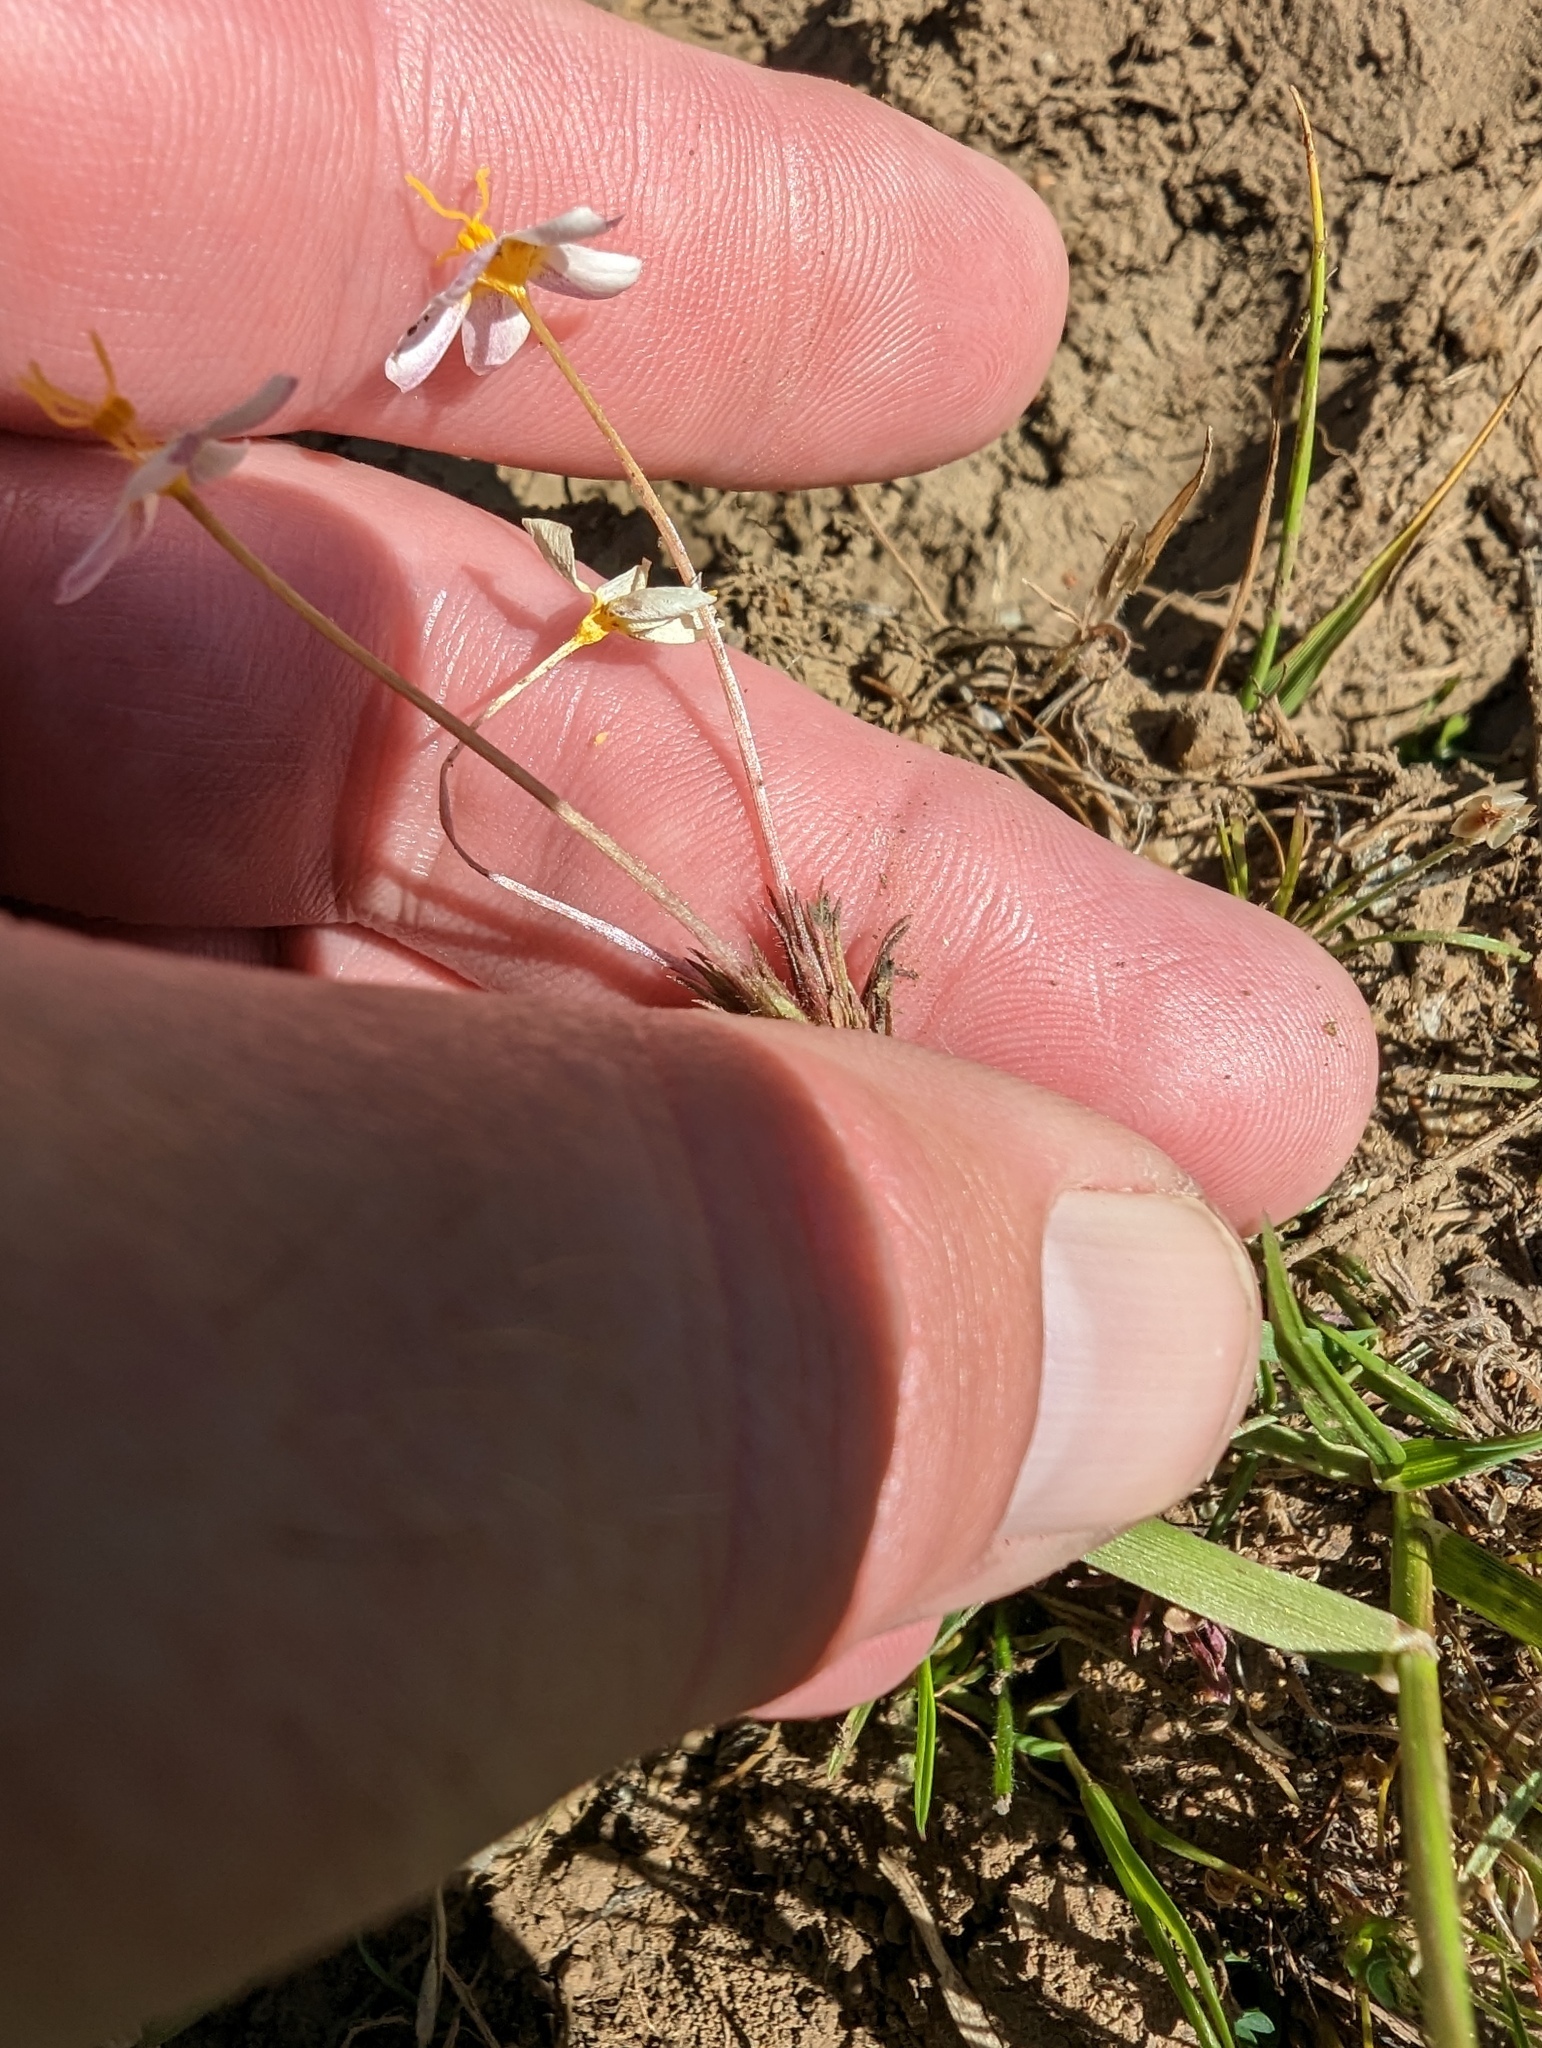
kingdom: Plantae
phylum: Tracheophyta
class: Magnoliopsida
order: Ericales
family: Polemoniaceae
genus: Leptosiphon
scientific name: Leptosiphon parviflorus
